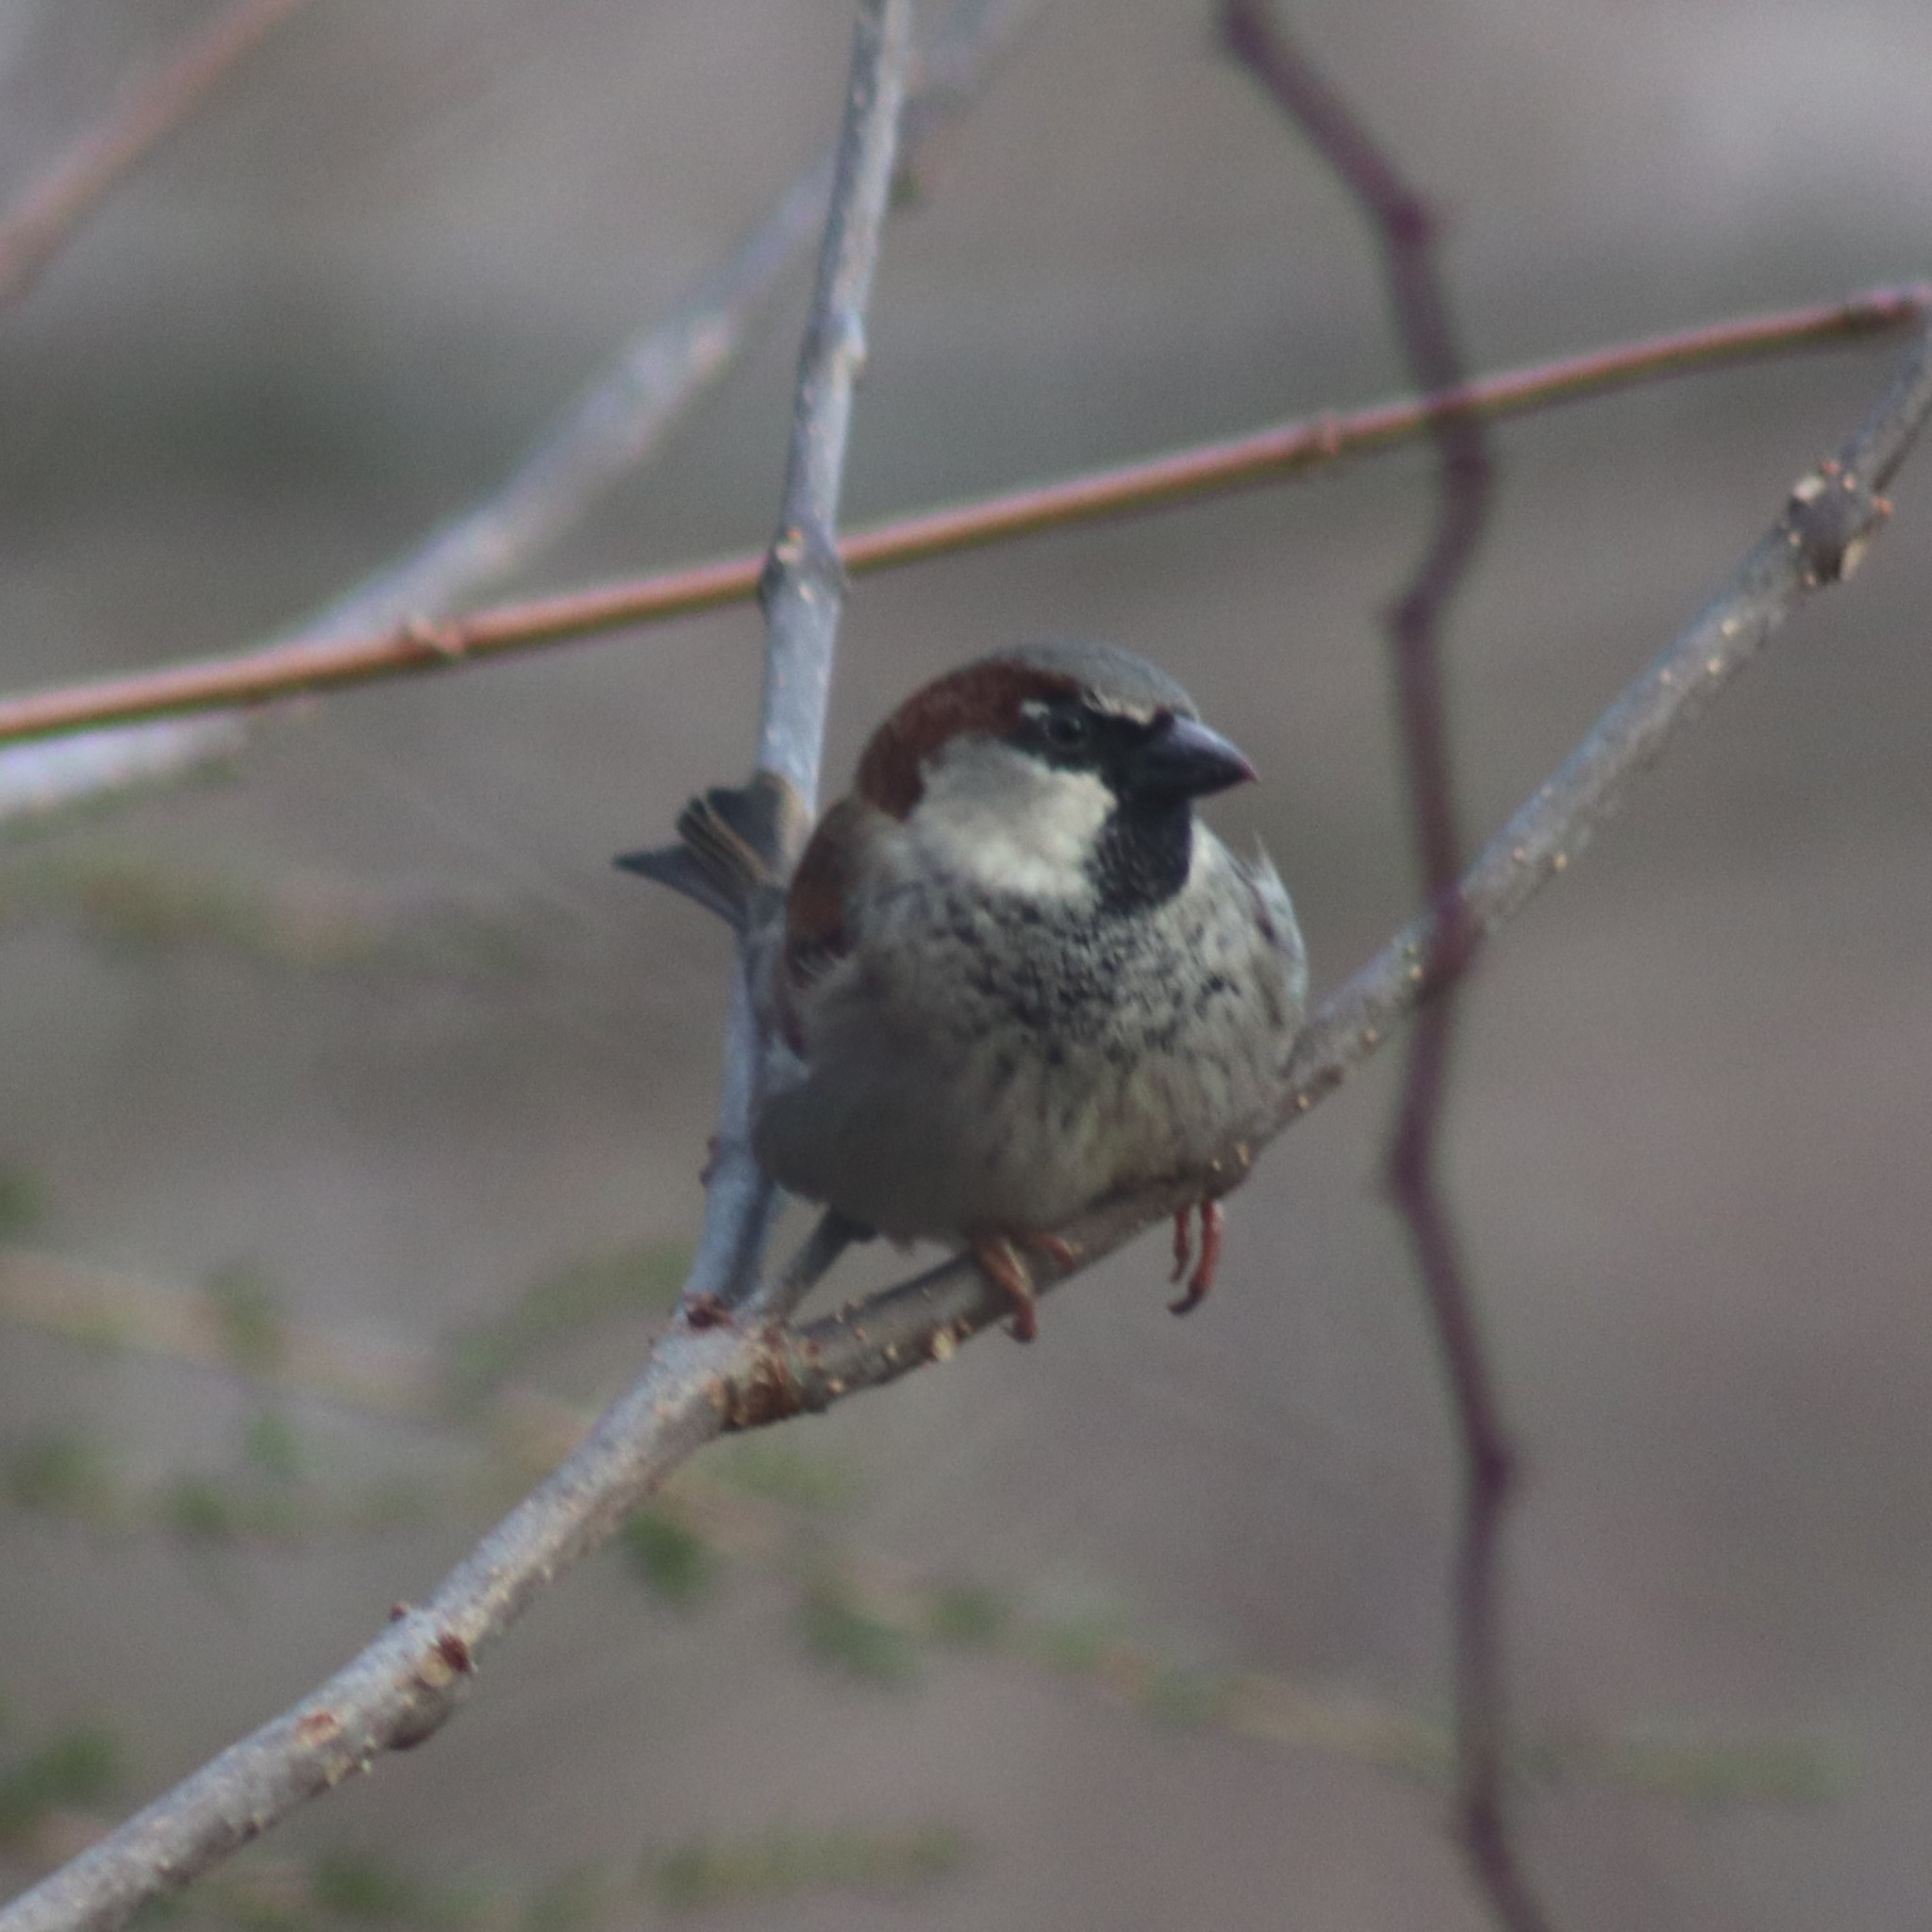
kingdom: Animalia
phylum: Chordata
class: Aves
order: Passeriformes
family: Passeridae
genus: Passer
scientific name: Passer domesticus
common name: House sparrow
